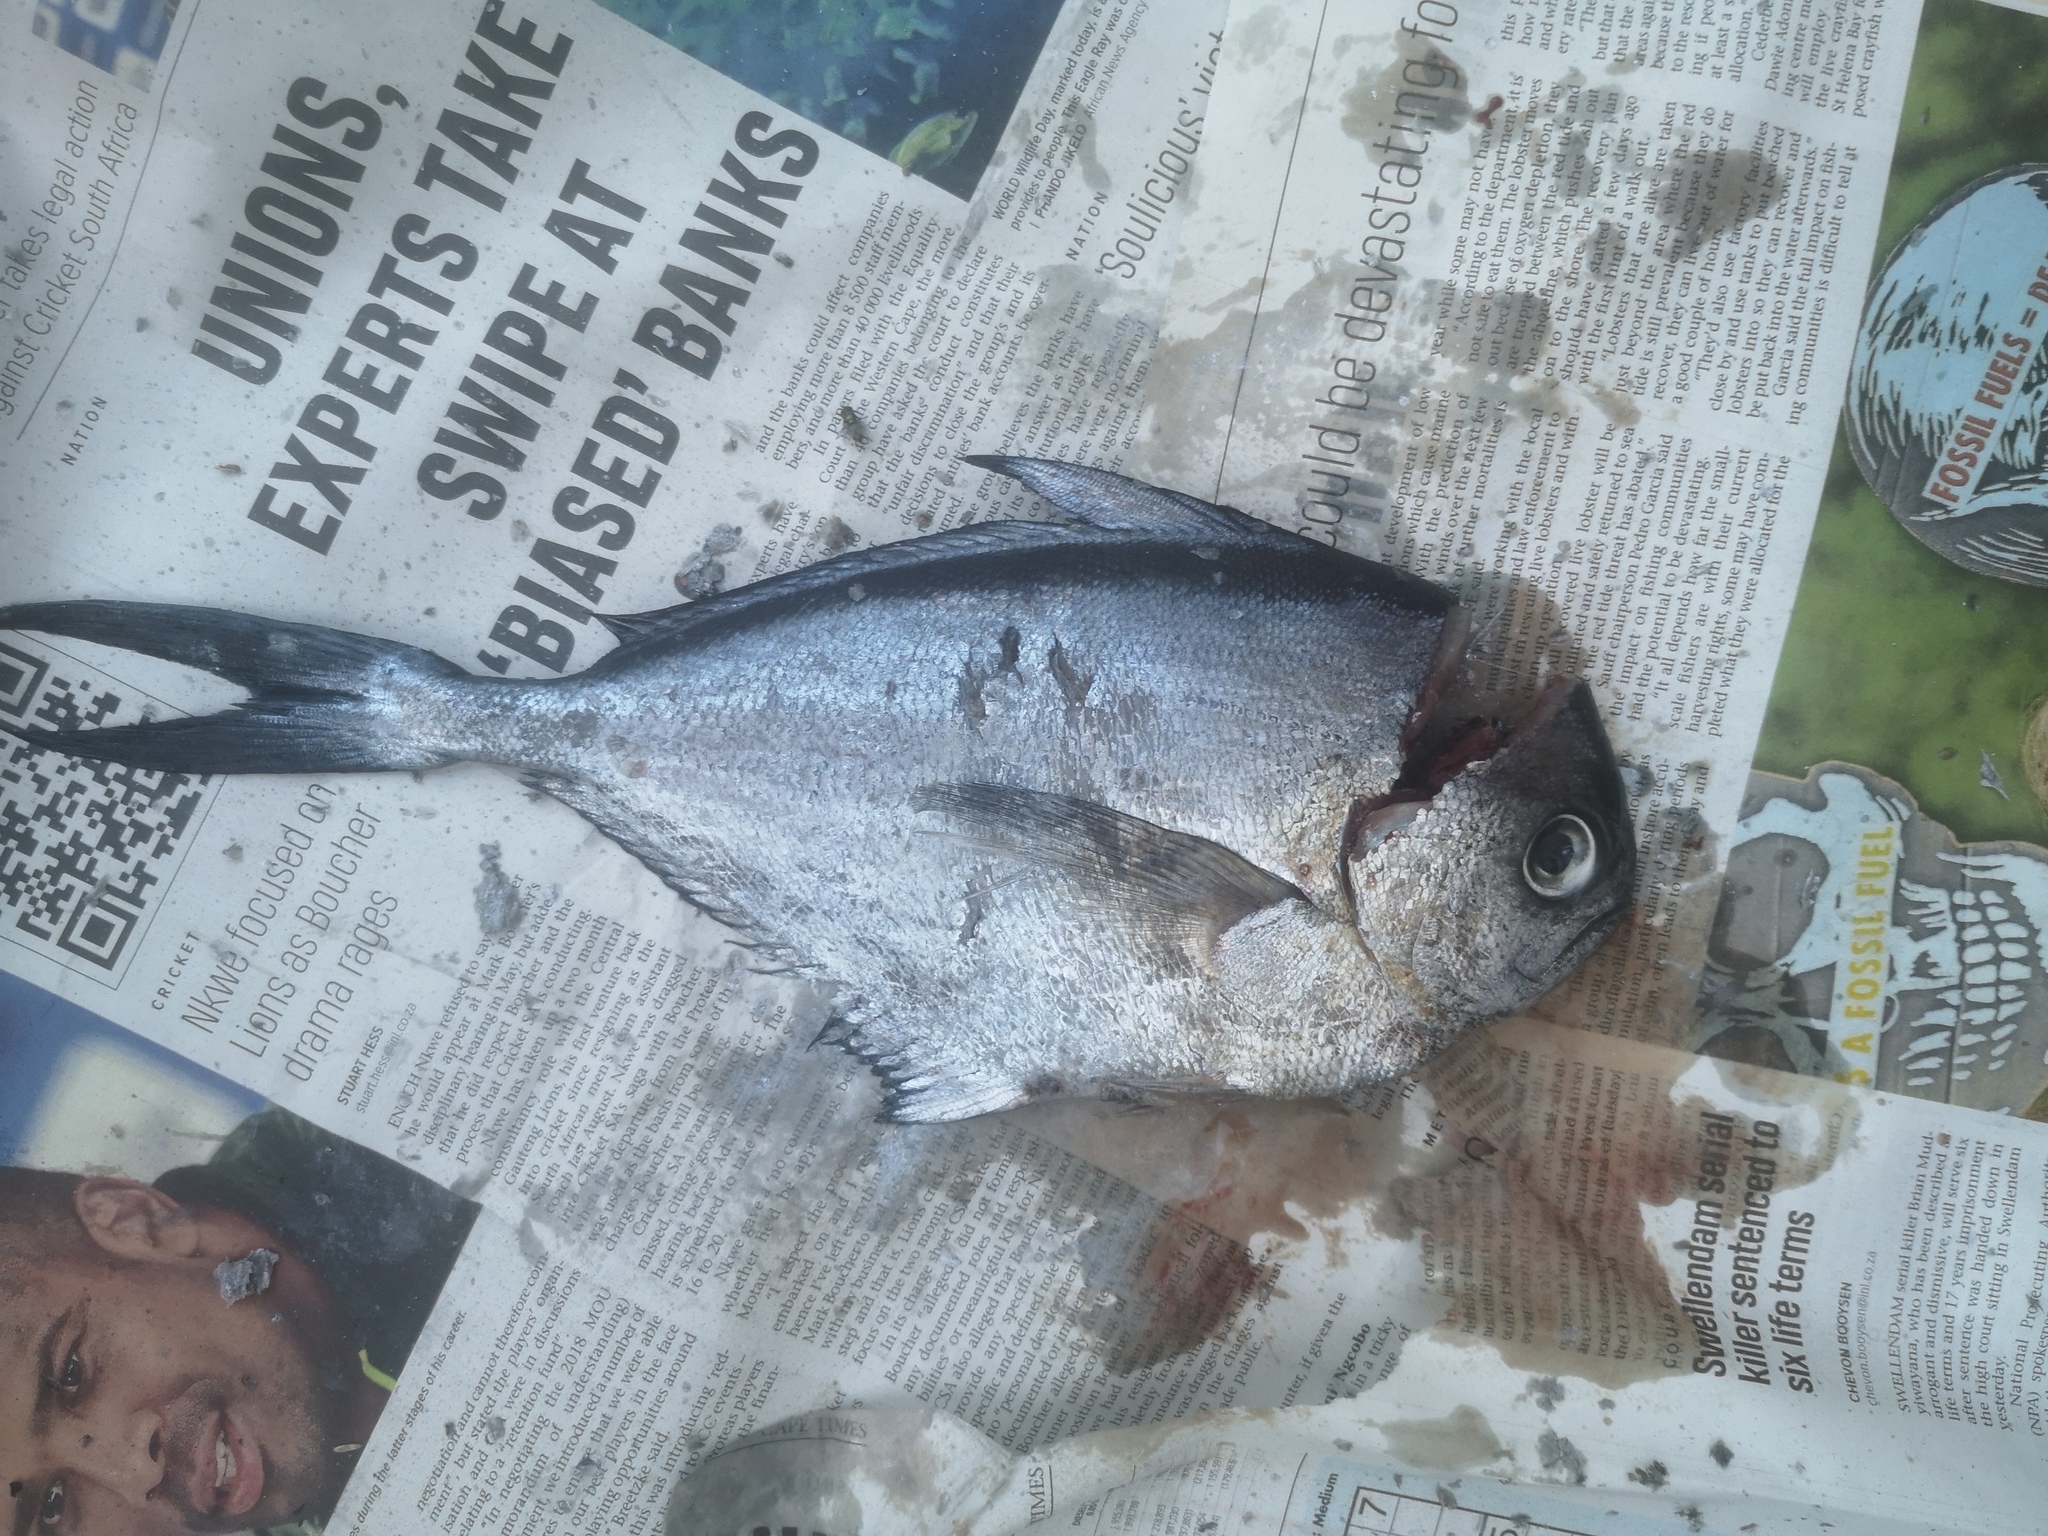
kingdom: Animalia
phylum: Chordata
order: Perciformes
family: Bramidae
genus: Brama
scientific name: Brama brama
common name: Ray's bream
